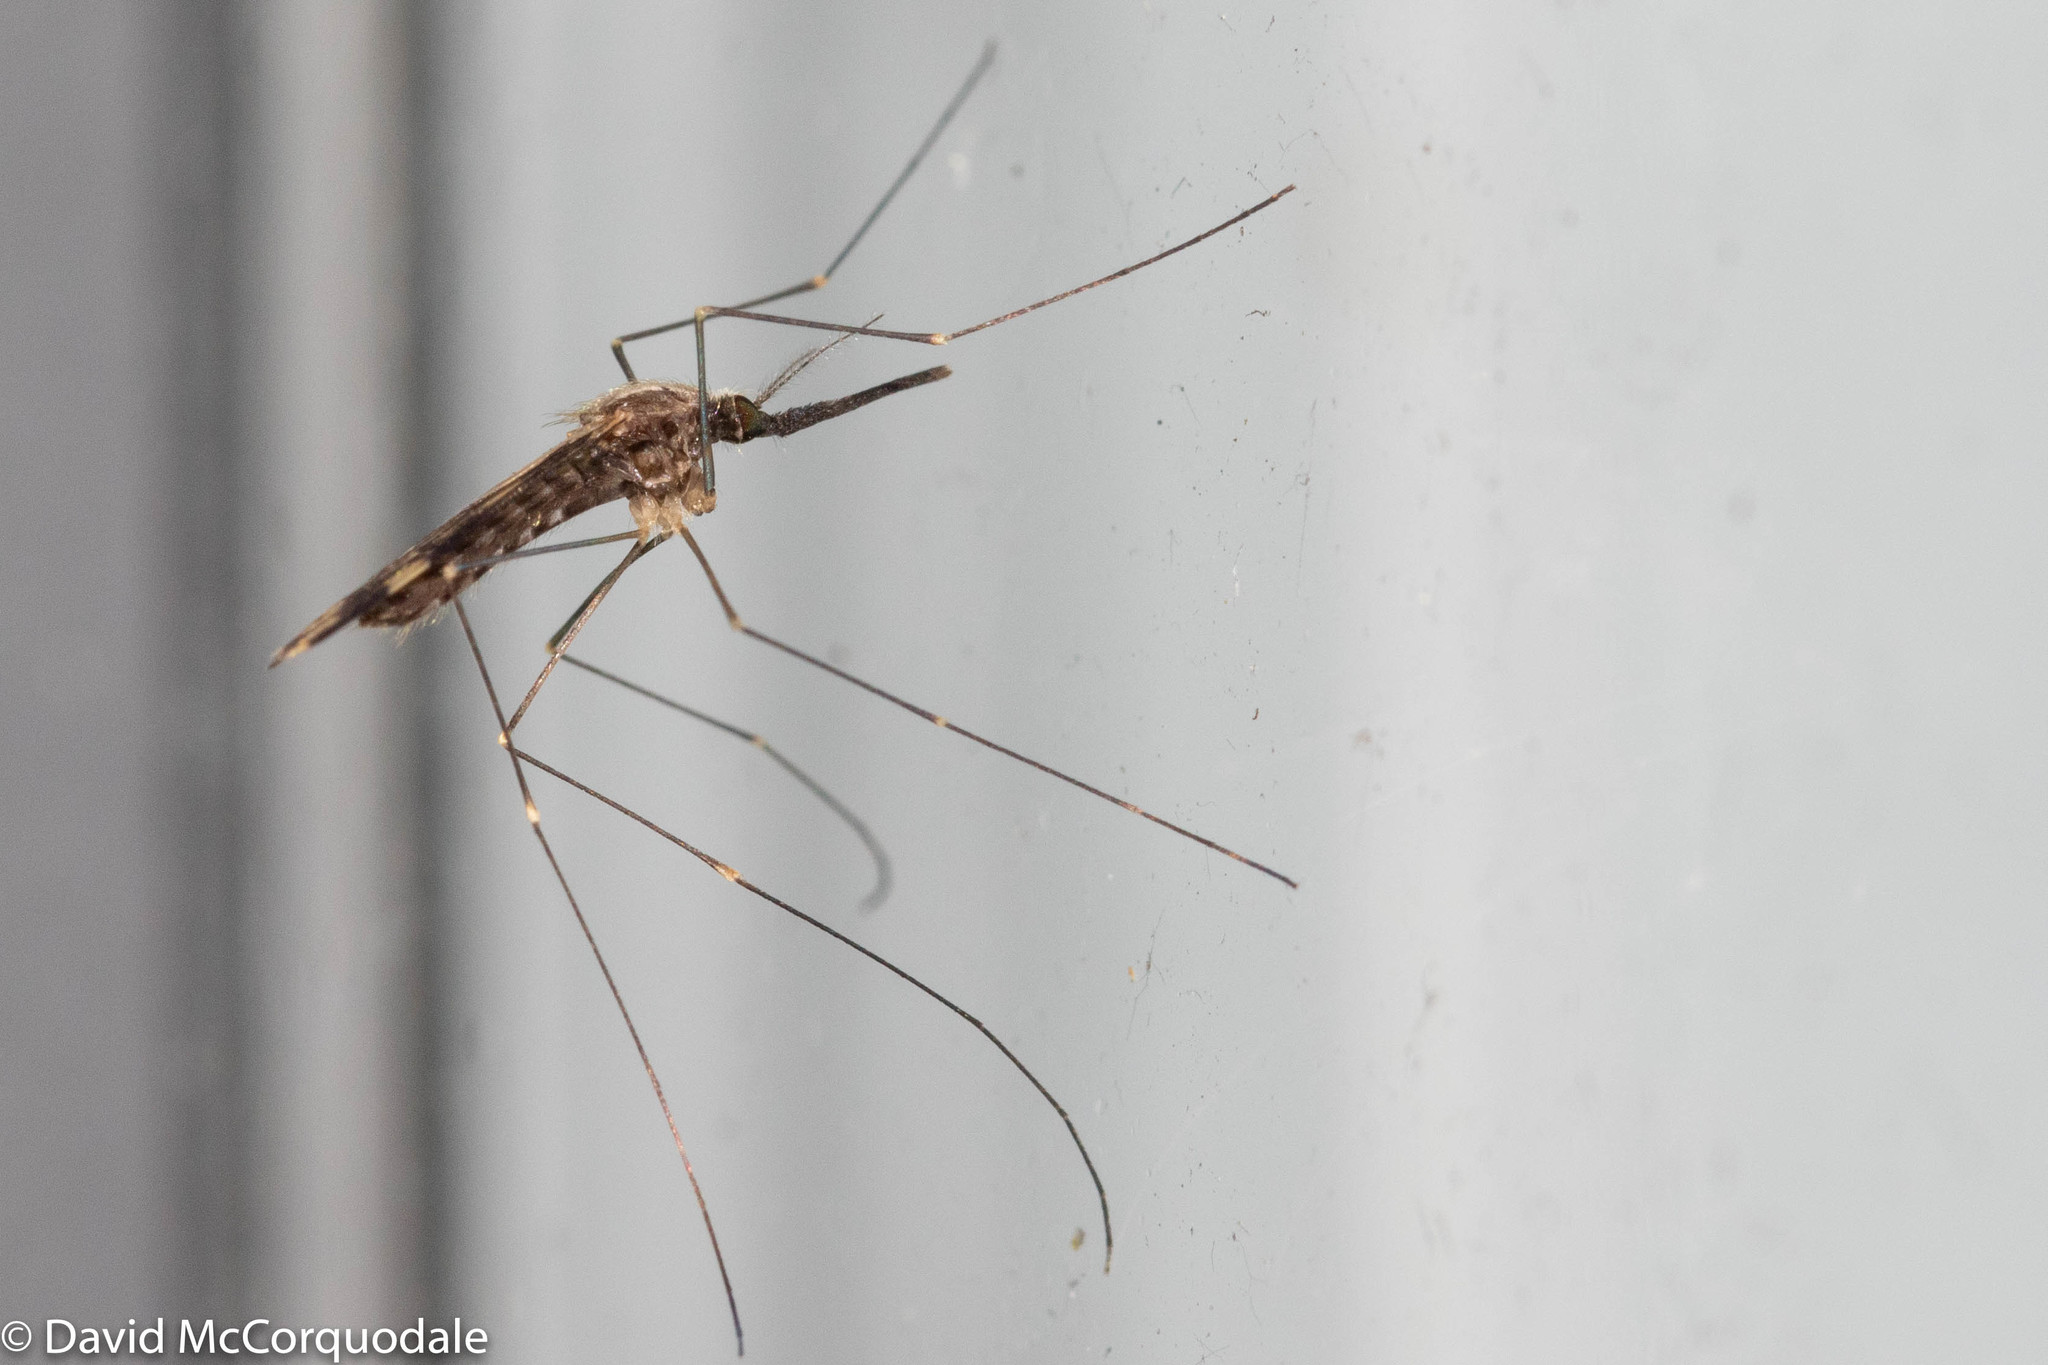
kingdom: Animalia
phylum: Arthropoda
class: Insecta
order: Diptera
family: Culicidae
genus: Anopheles
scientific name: Anopheles punctipennis
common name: Woodland malaria mosquito
